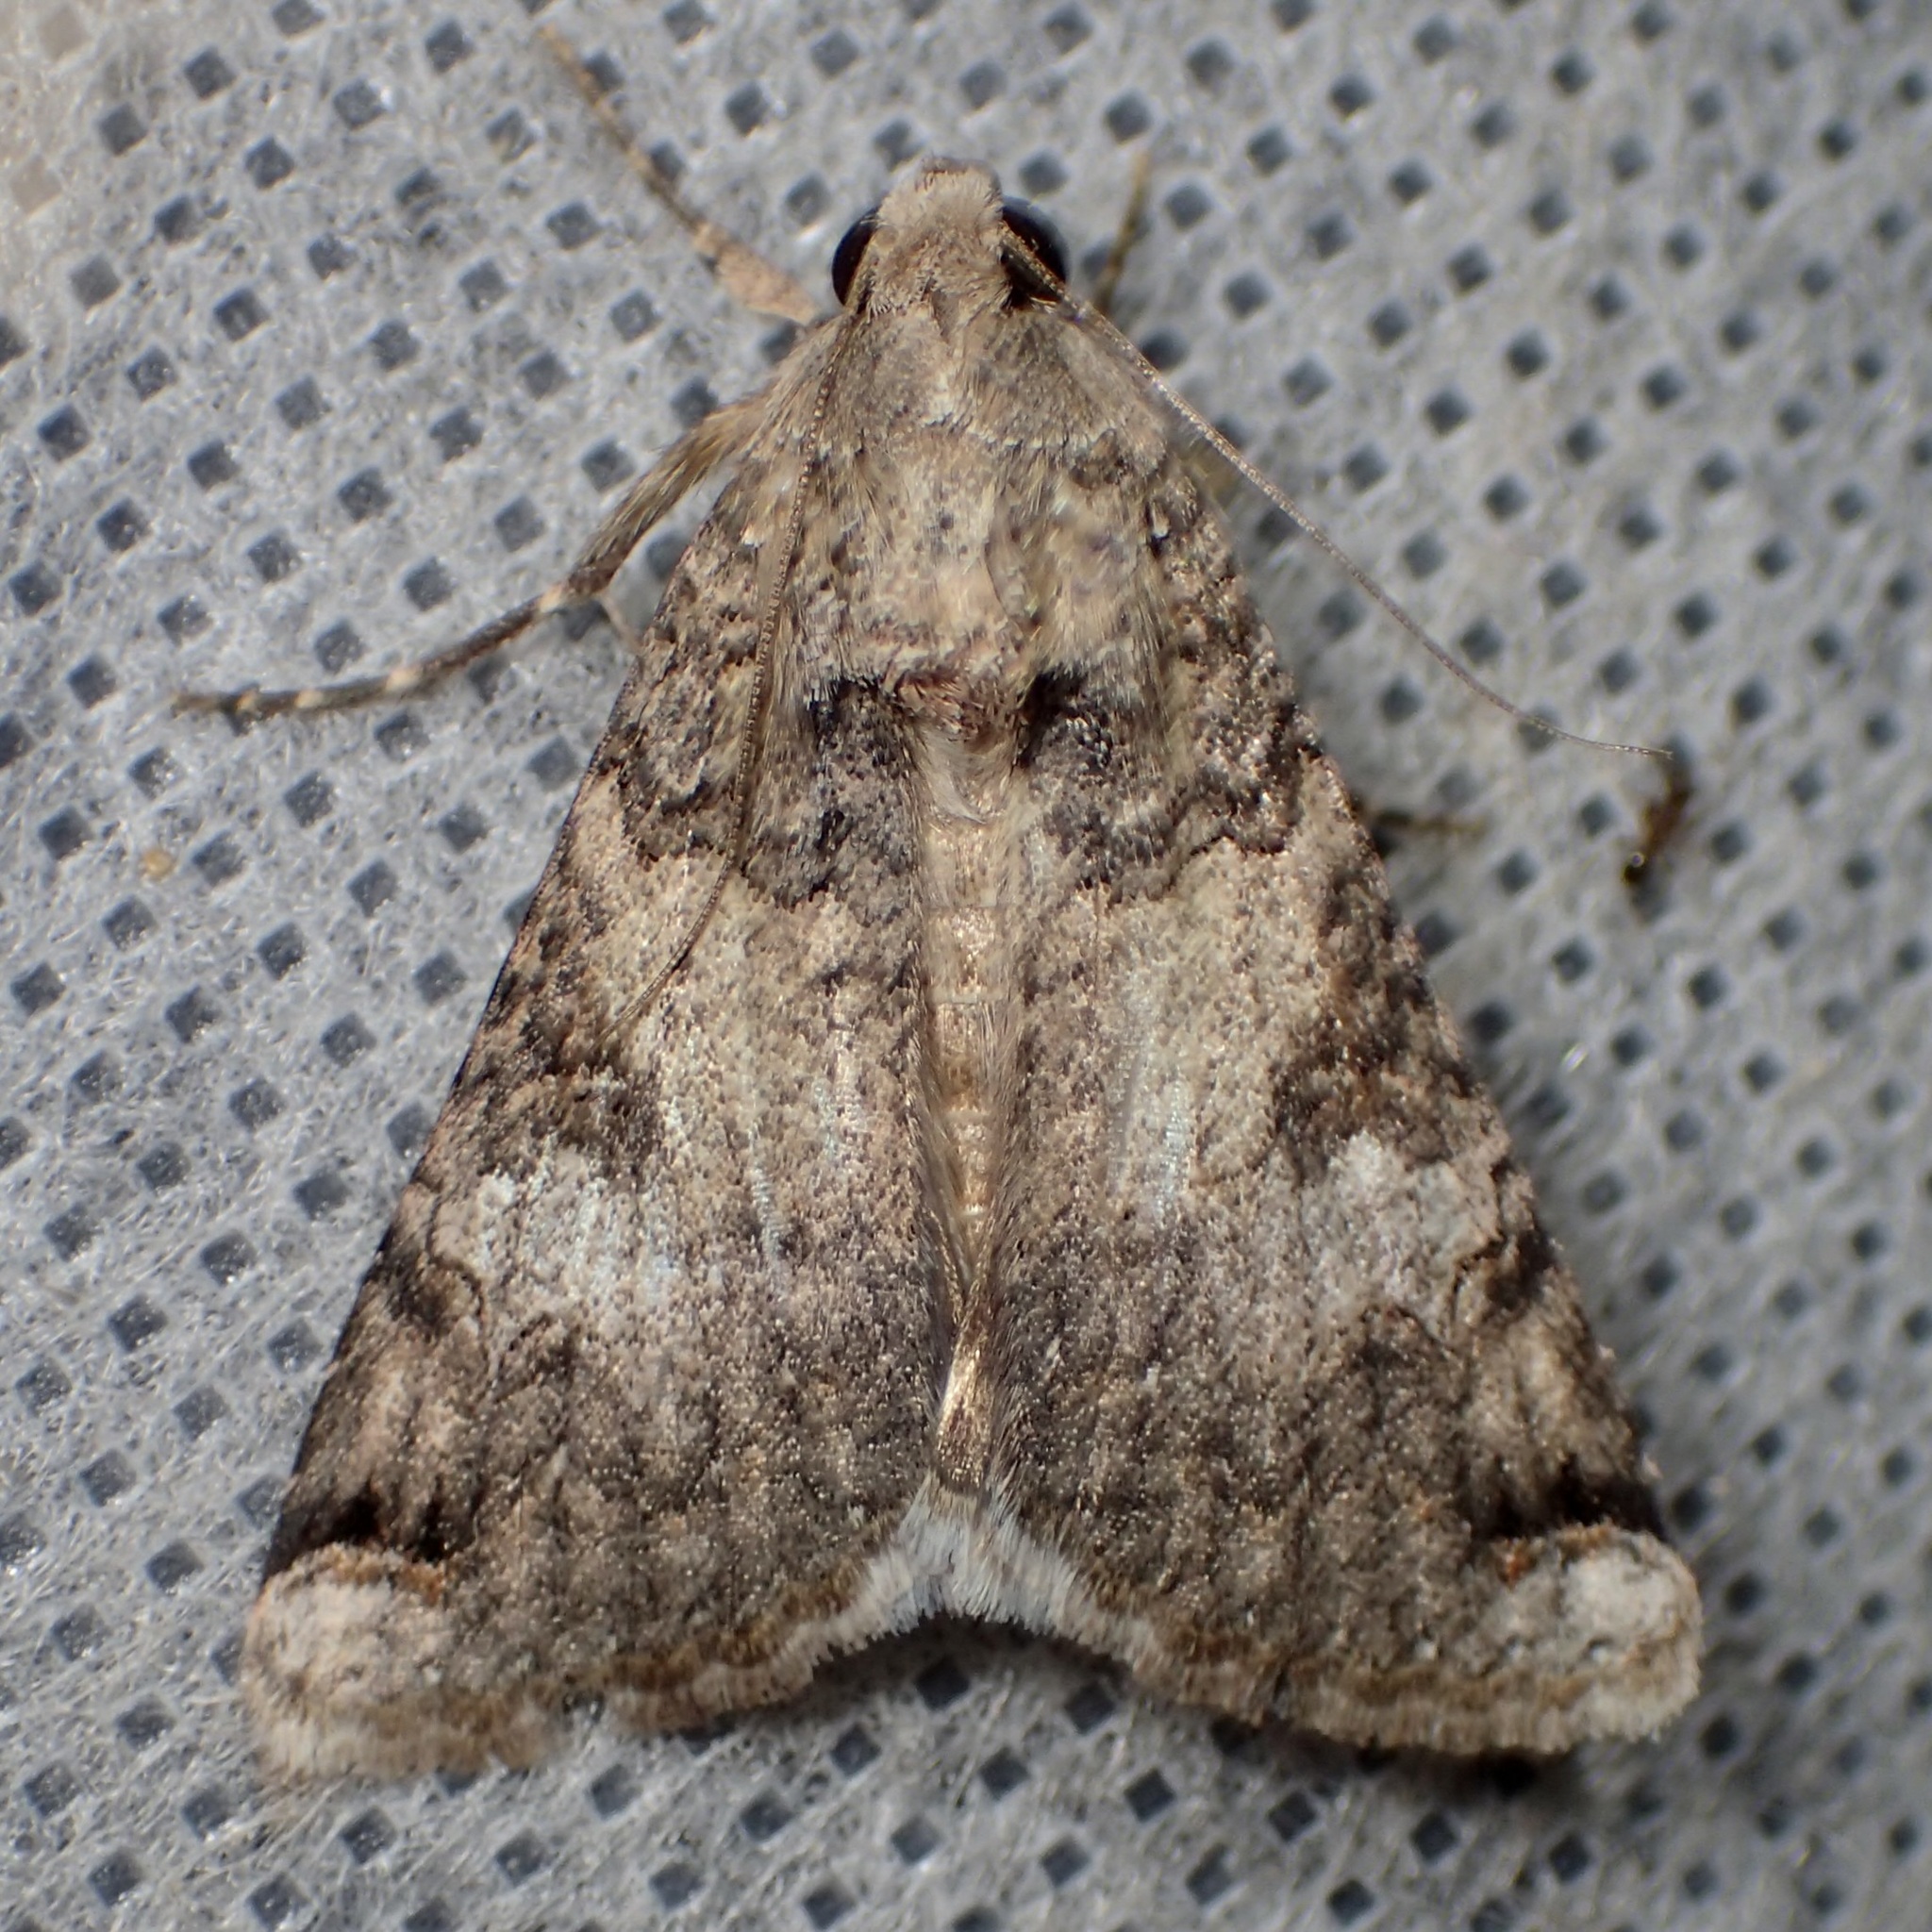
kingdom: Animalia
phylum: Arthropoda
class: Insecta
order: Lepidoptera
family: Erebidae
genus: Melipotis
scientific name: Melipotis novanda
